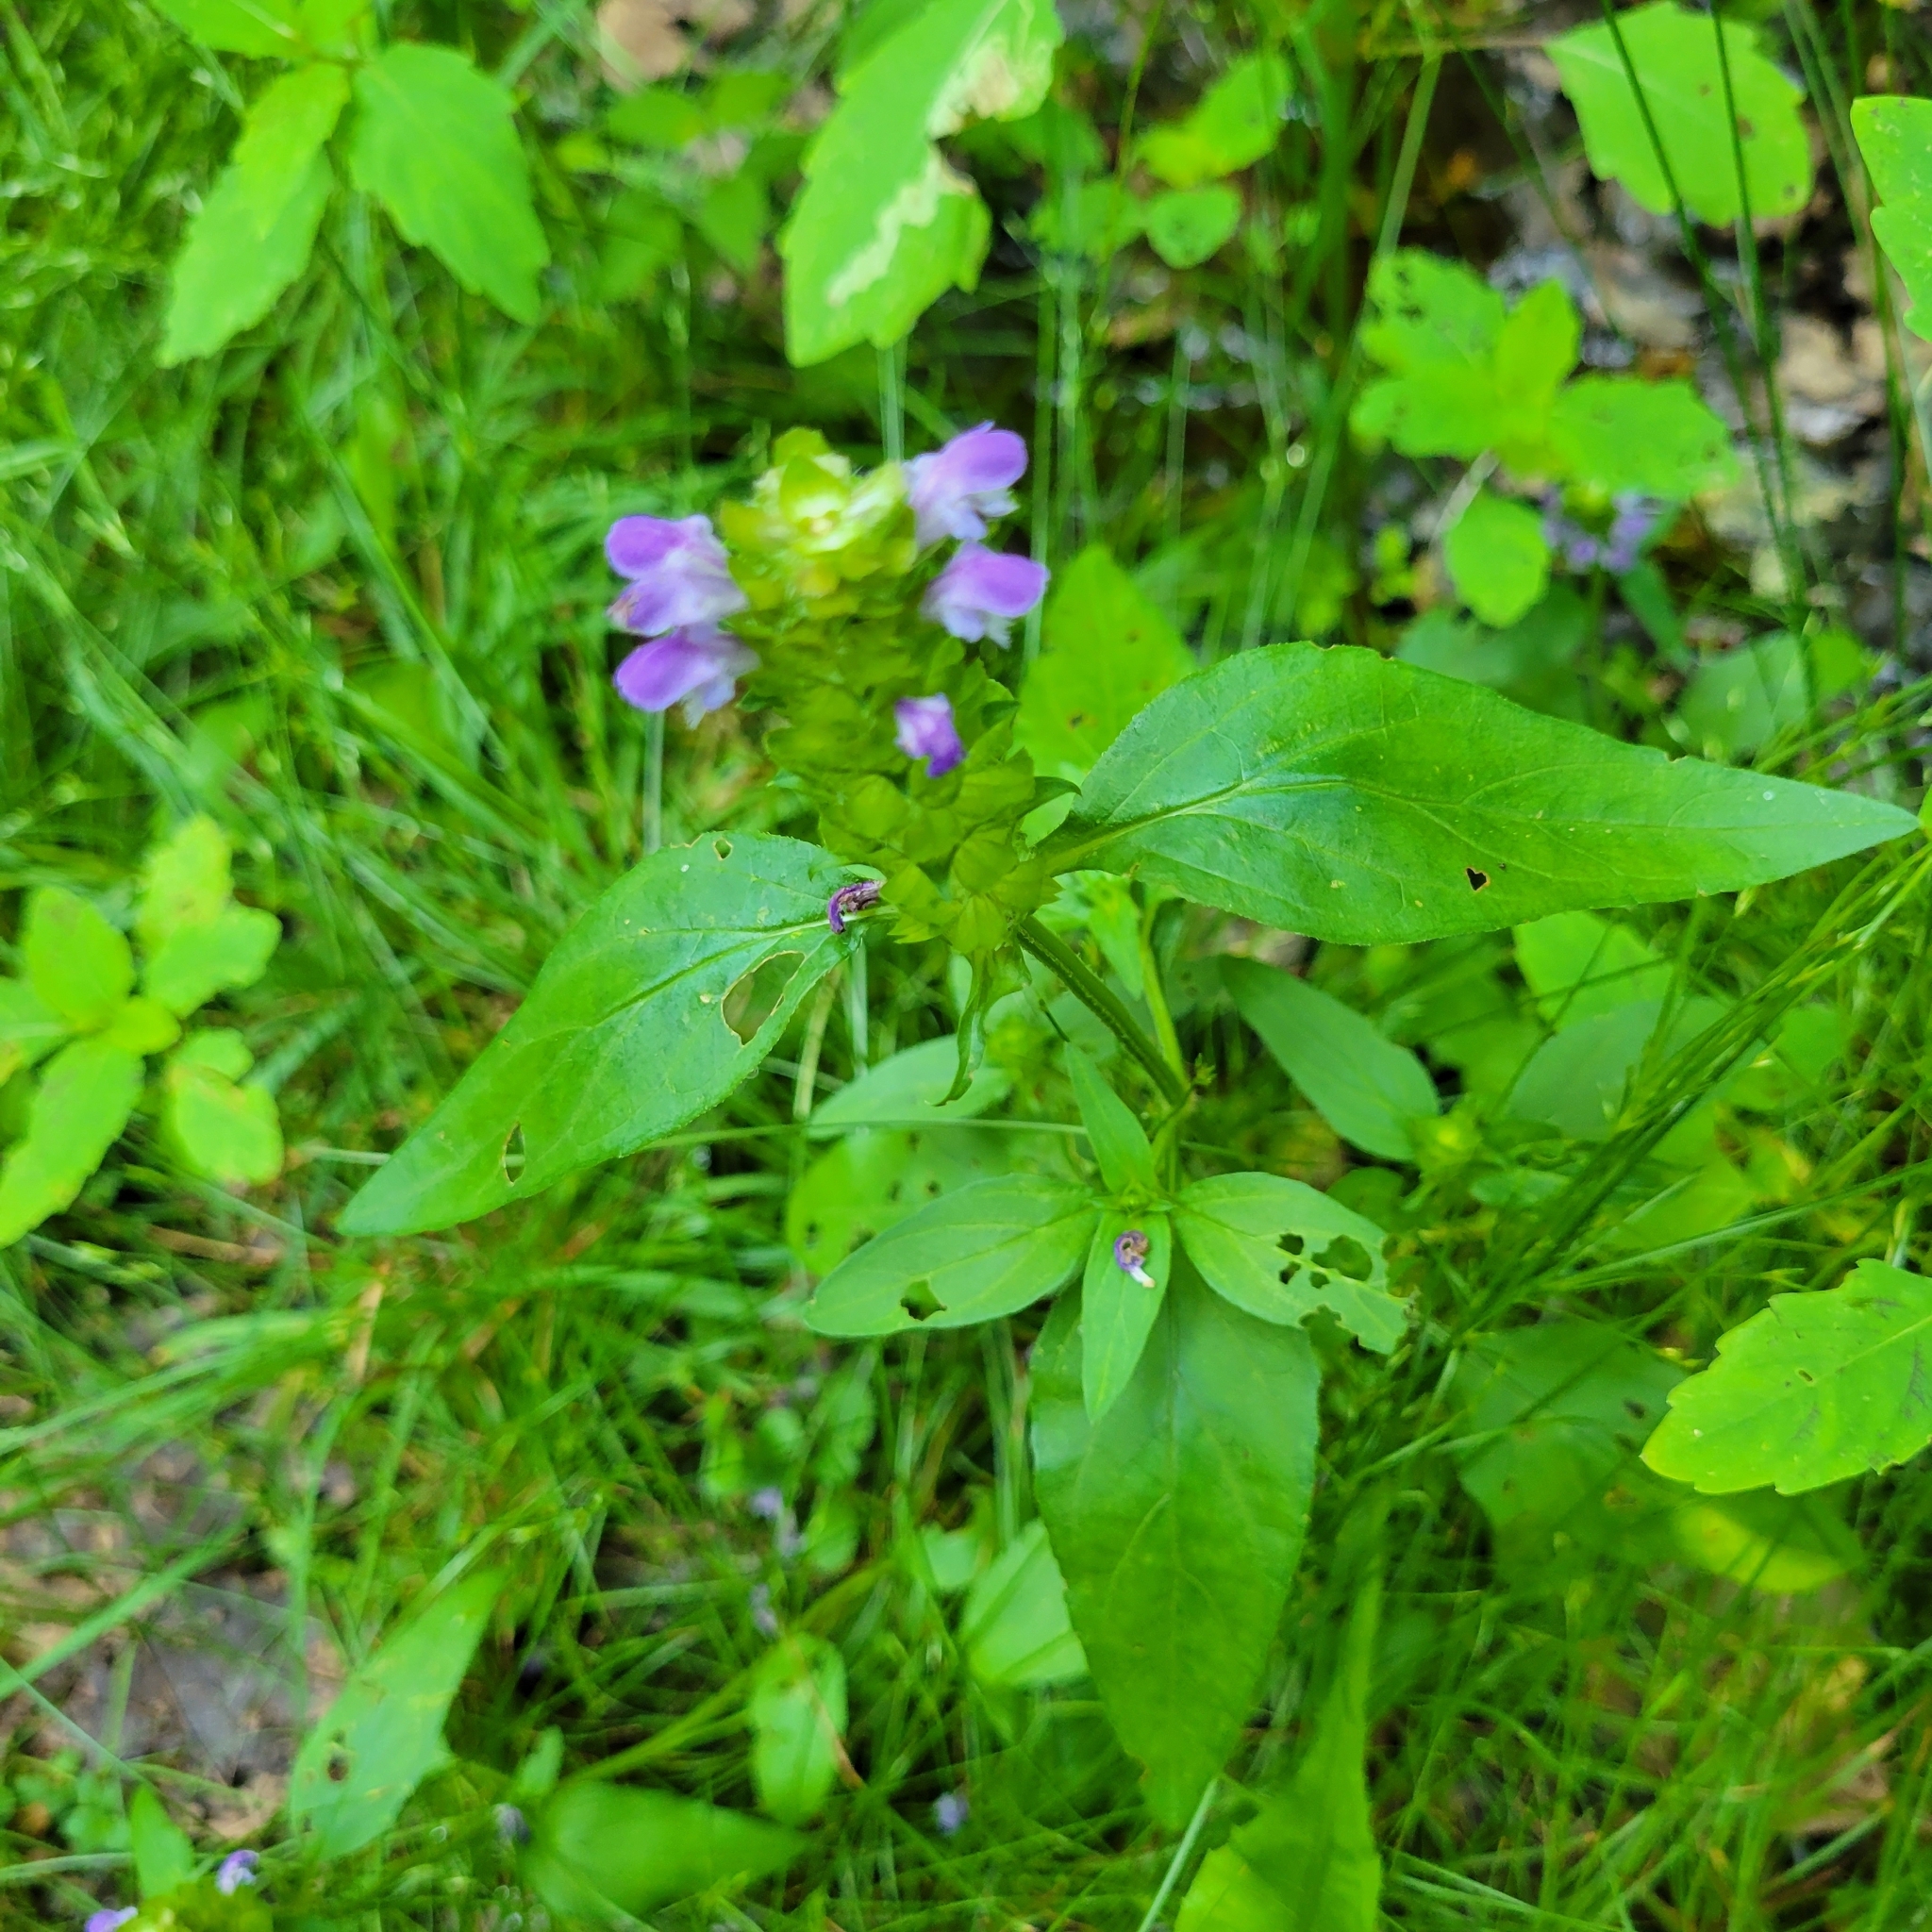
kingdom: Plantae
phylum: Tracheophyta
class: Magnoliopsida
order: Lamiales
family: Lamiaceae
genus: Prunella
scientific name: Prunella vulgaris
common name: Heal-all
